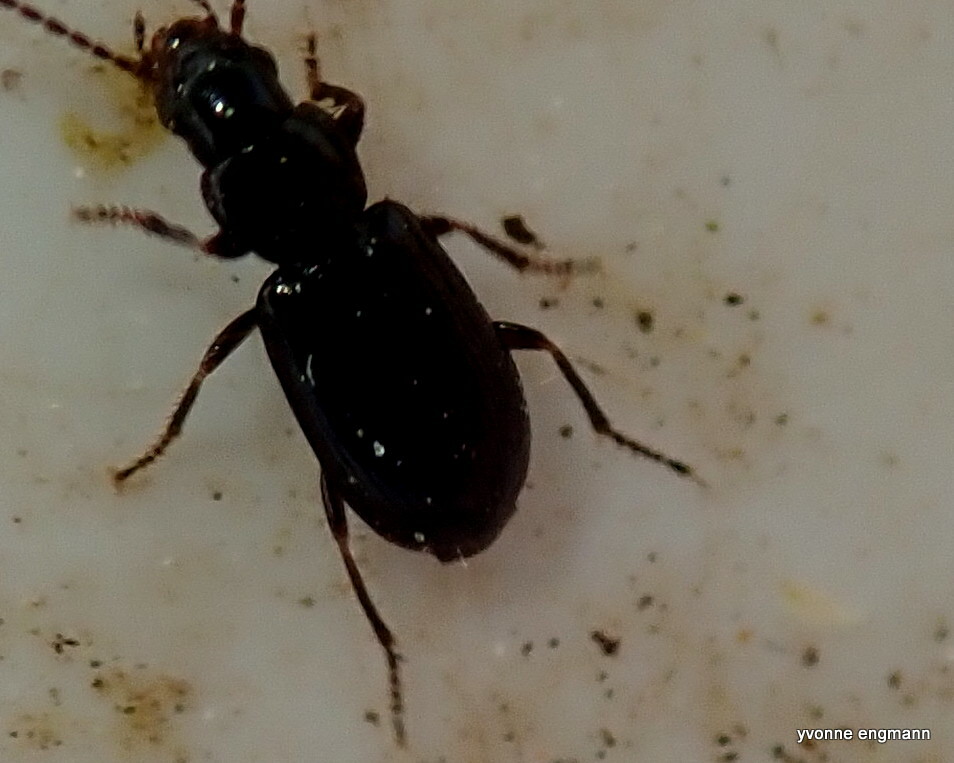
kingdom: Animalia
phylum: Arthropoda
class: Insecta
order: Coleoptera
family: Carabidae
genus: Acupalpus
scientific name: Acupalpus exiguus
